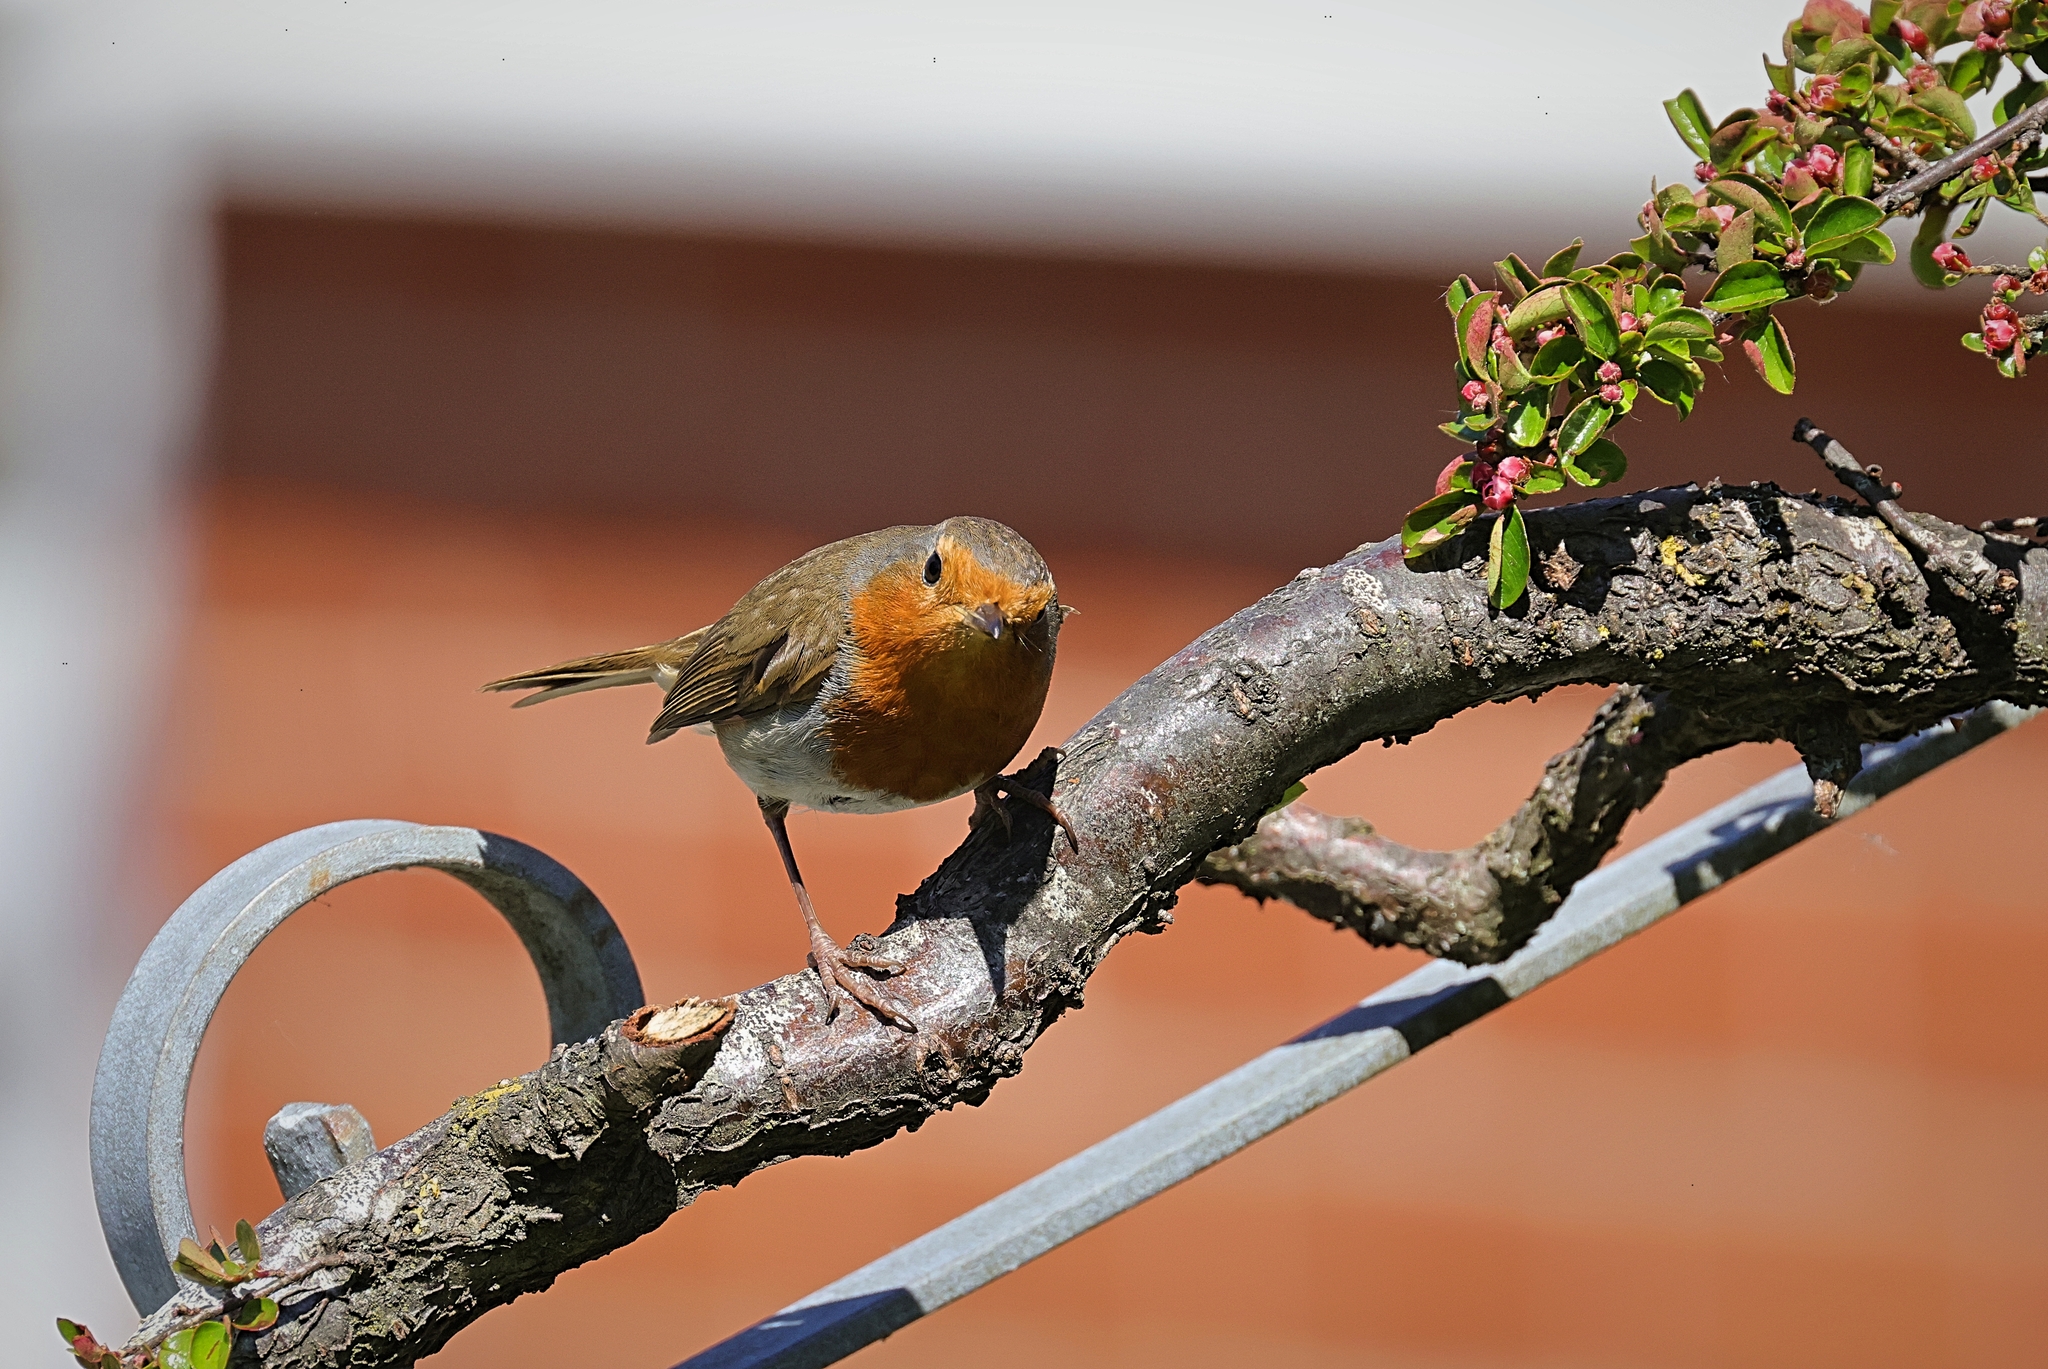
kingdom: Animalia
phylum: Chordata
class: Aves
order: Passeriformes
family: Muscicapidae
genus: Erithacus
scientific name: Erithacus rubecula
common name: European robin
